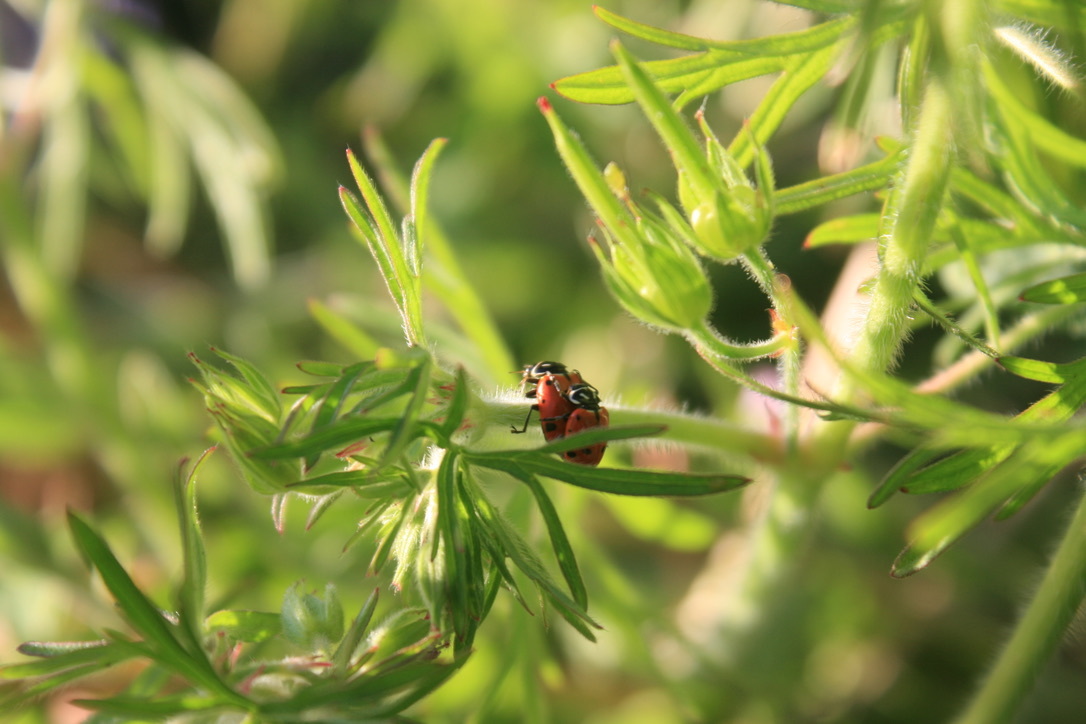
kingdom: Animalia
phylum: Arthropoda
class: Insecta
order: Coleoptera
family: Coccinellidae
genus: Hippodamia
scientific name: Hippodamia convergens
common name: Convergent lady beetle
